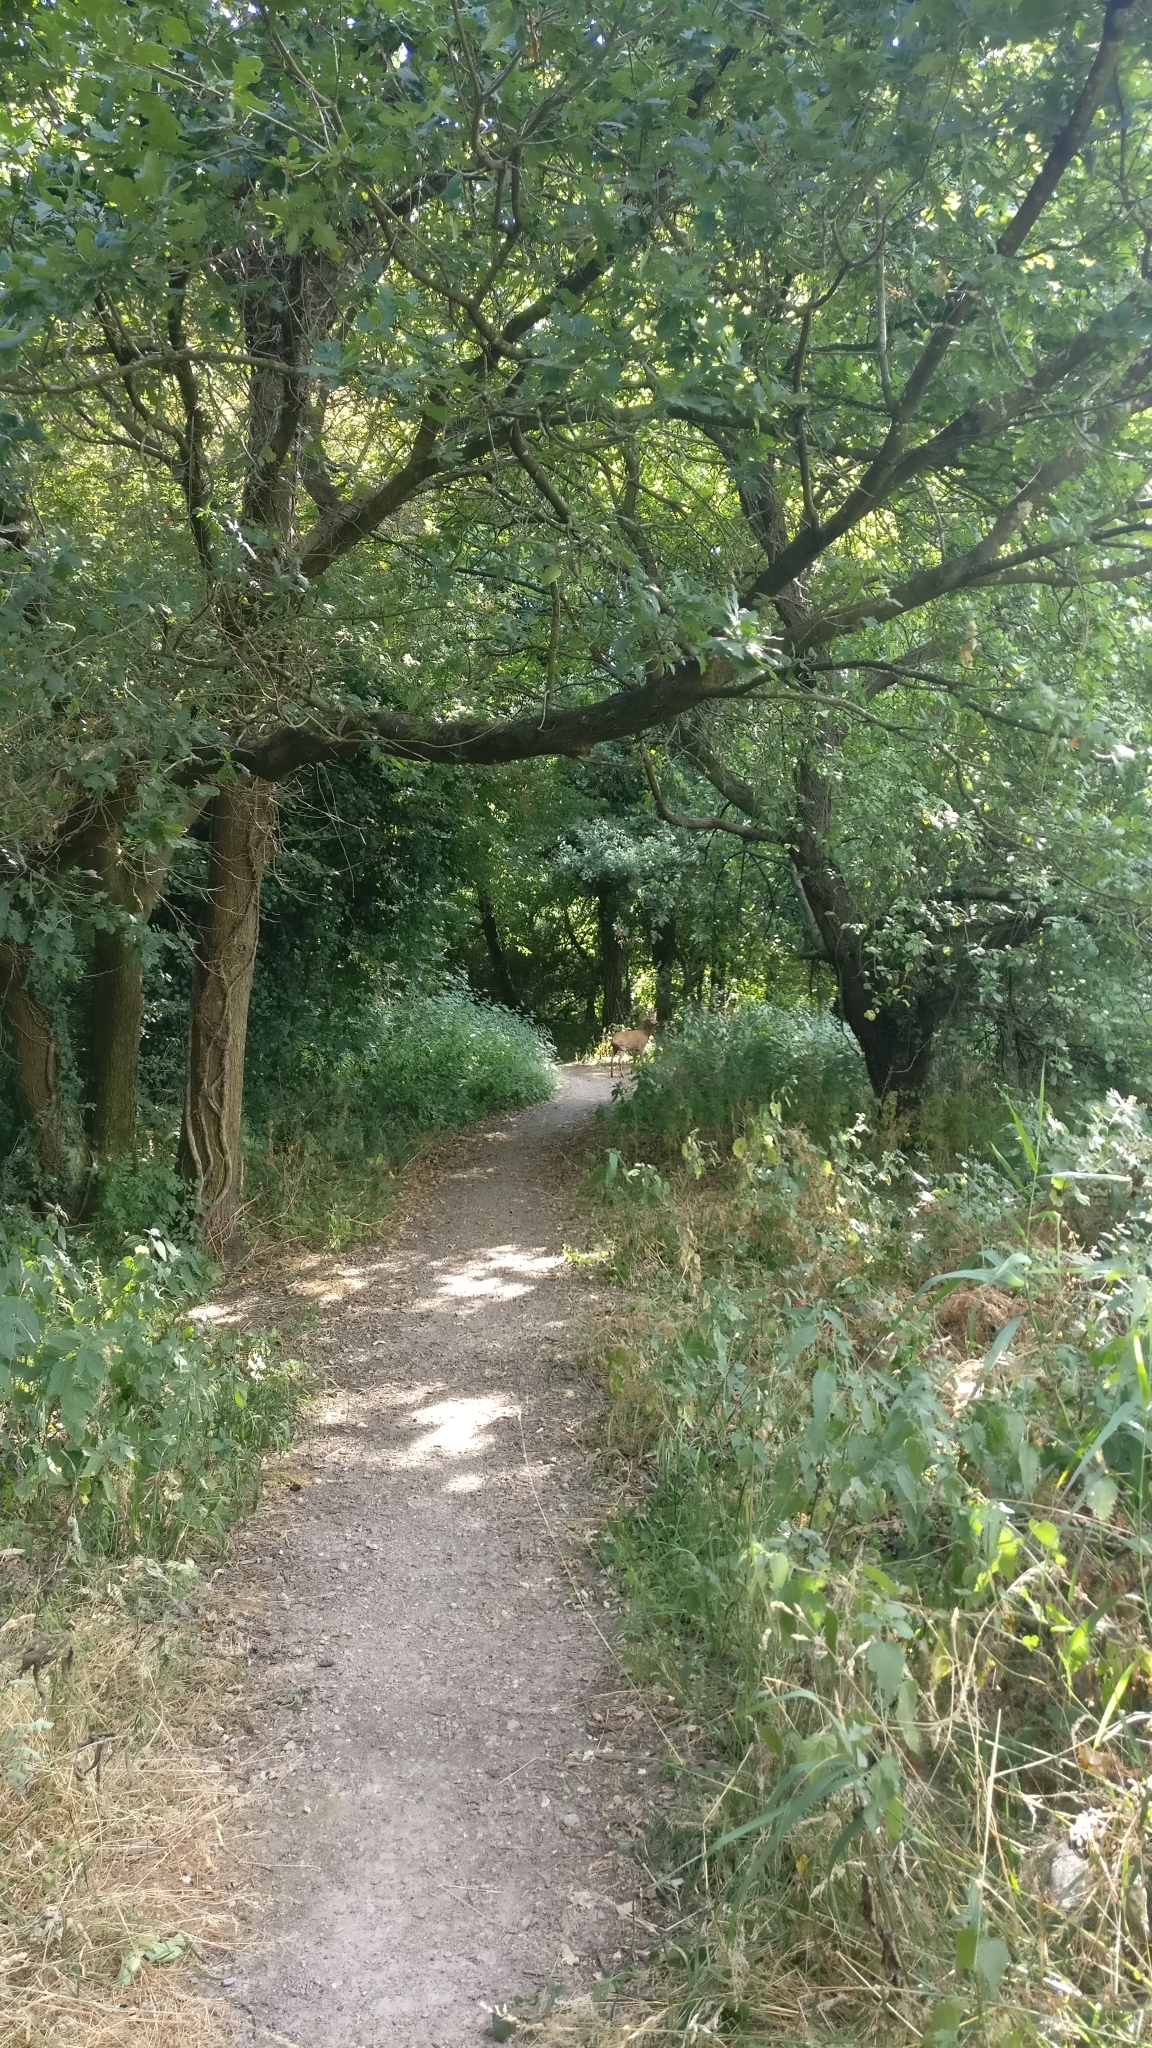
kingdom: Animalia
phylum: Chordata
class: Mammalia
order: Artiodactyla
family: Cervidae
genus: Capreolus
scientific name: Capreolus capreolus
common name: Western roe deer
